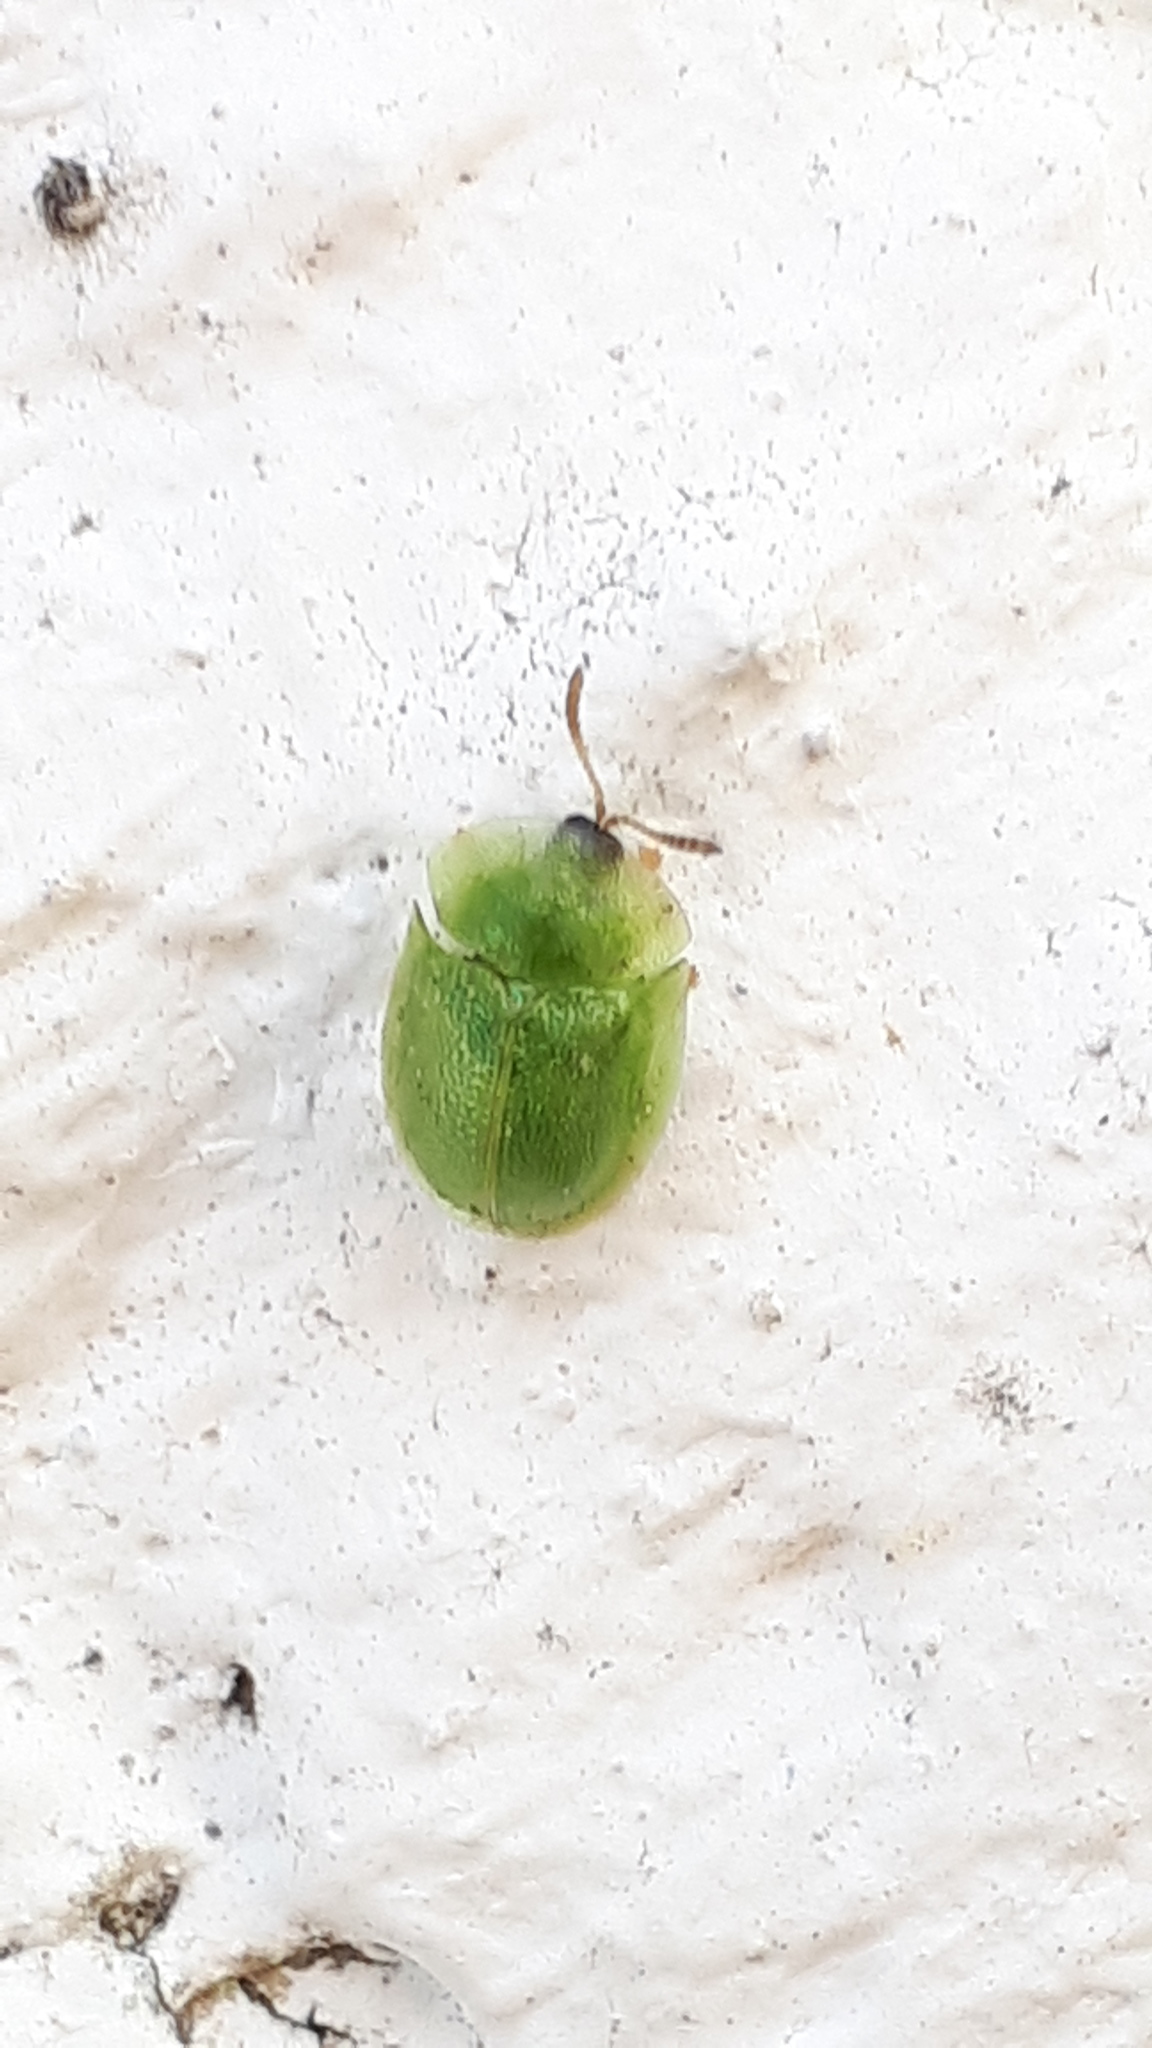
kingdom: Animalia
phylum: Arthropoda
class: Insecta
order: Coleoptera
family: Chrysomelidae
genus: Cassida
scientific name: Cassida hemisphaerica
